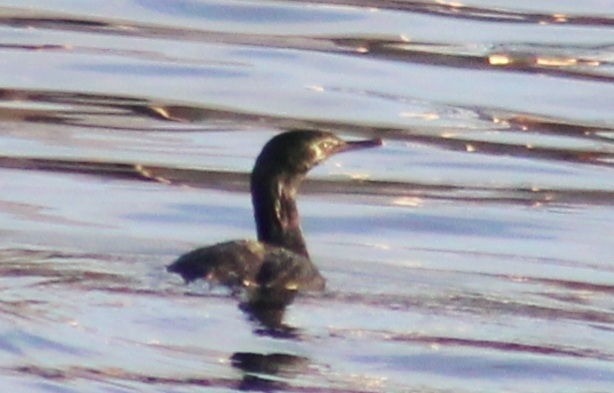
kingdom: Animalia
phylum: Chordata
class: Aves
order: Suliformes
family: Phalacrocoracidae
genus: Phalacrocorax
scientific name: Phalacrocorax pelagicus
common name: Pelagic cormorant
